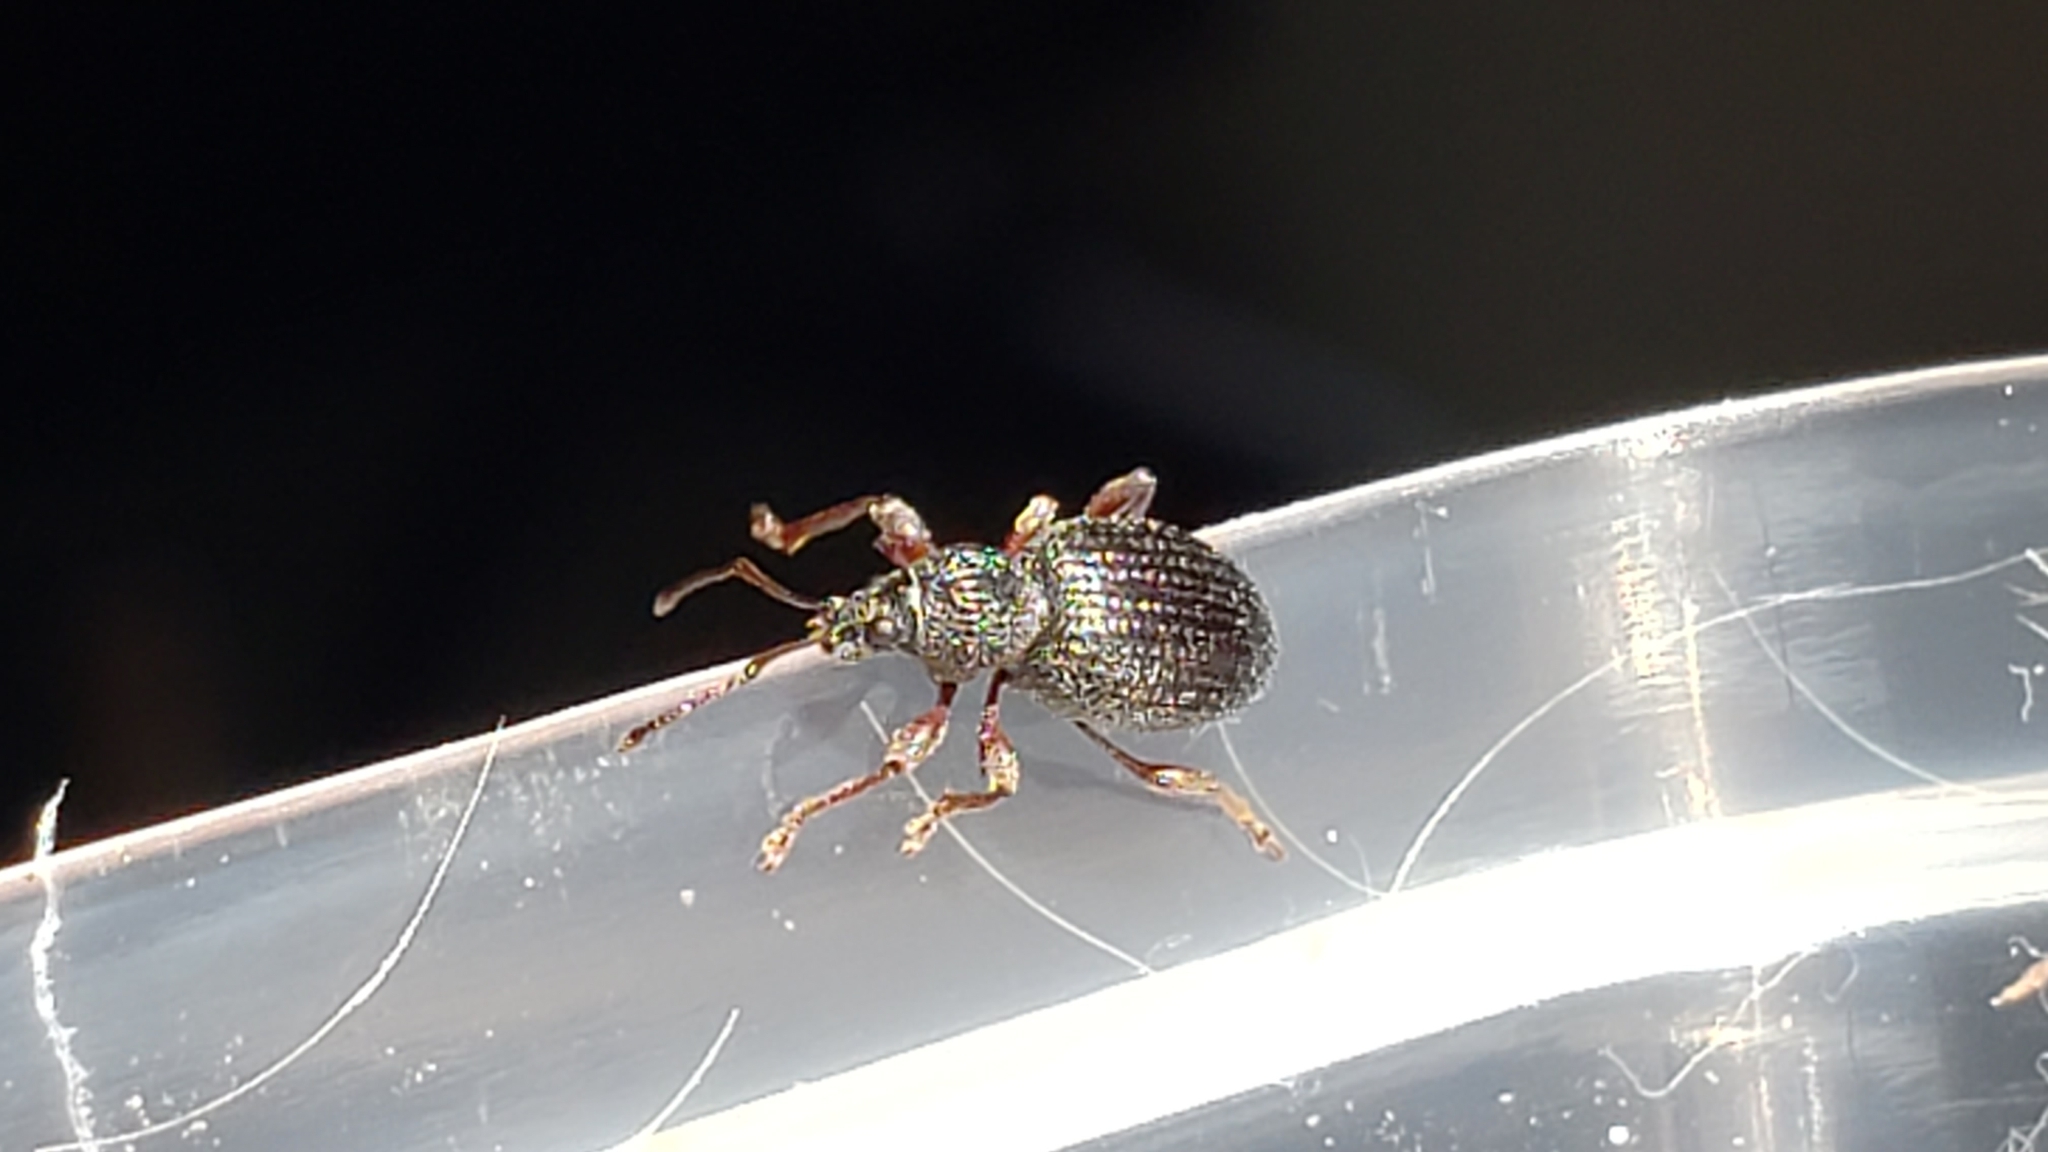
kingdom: Animalia
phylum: Arthropoda
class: Insecta
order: Coleoptera
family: Curculionidae
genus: Otiorhynchus
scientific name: Otiorhynchus ovatus
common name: Strawberry root weevil
